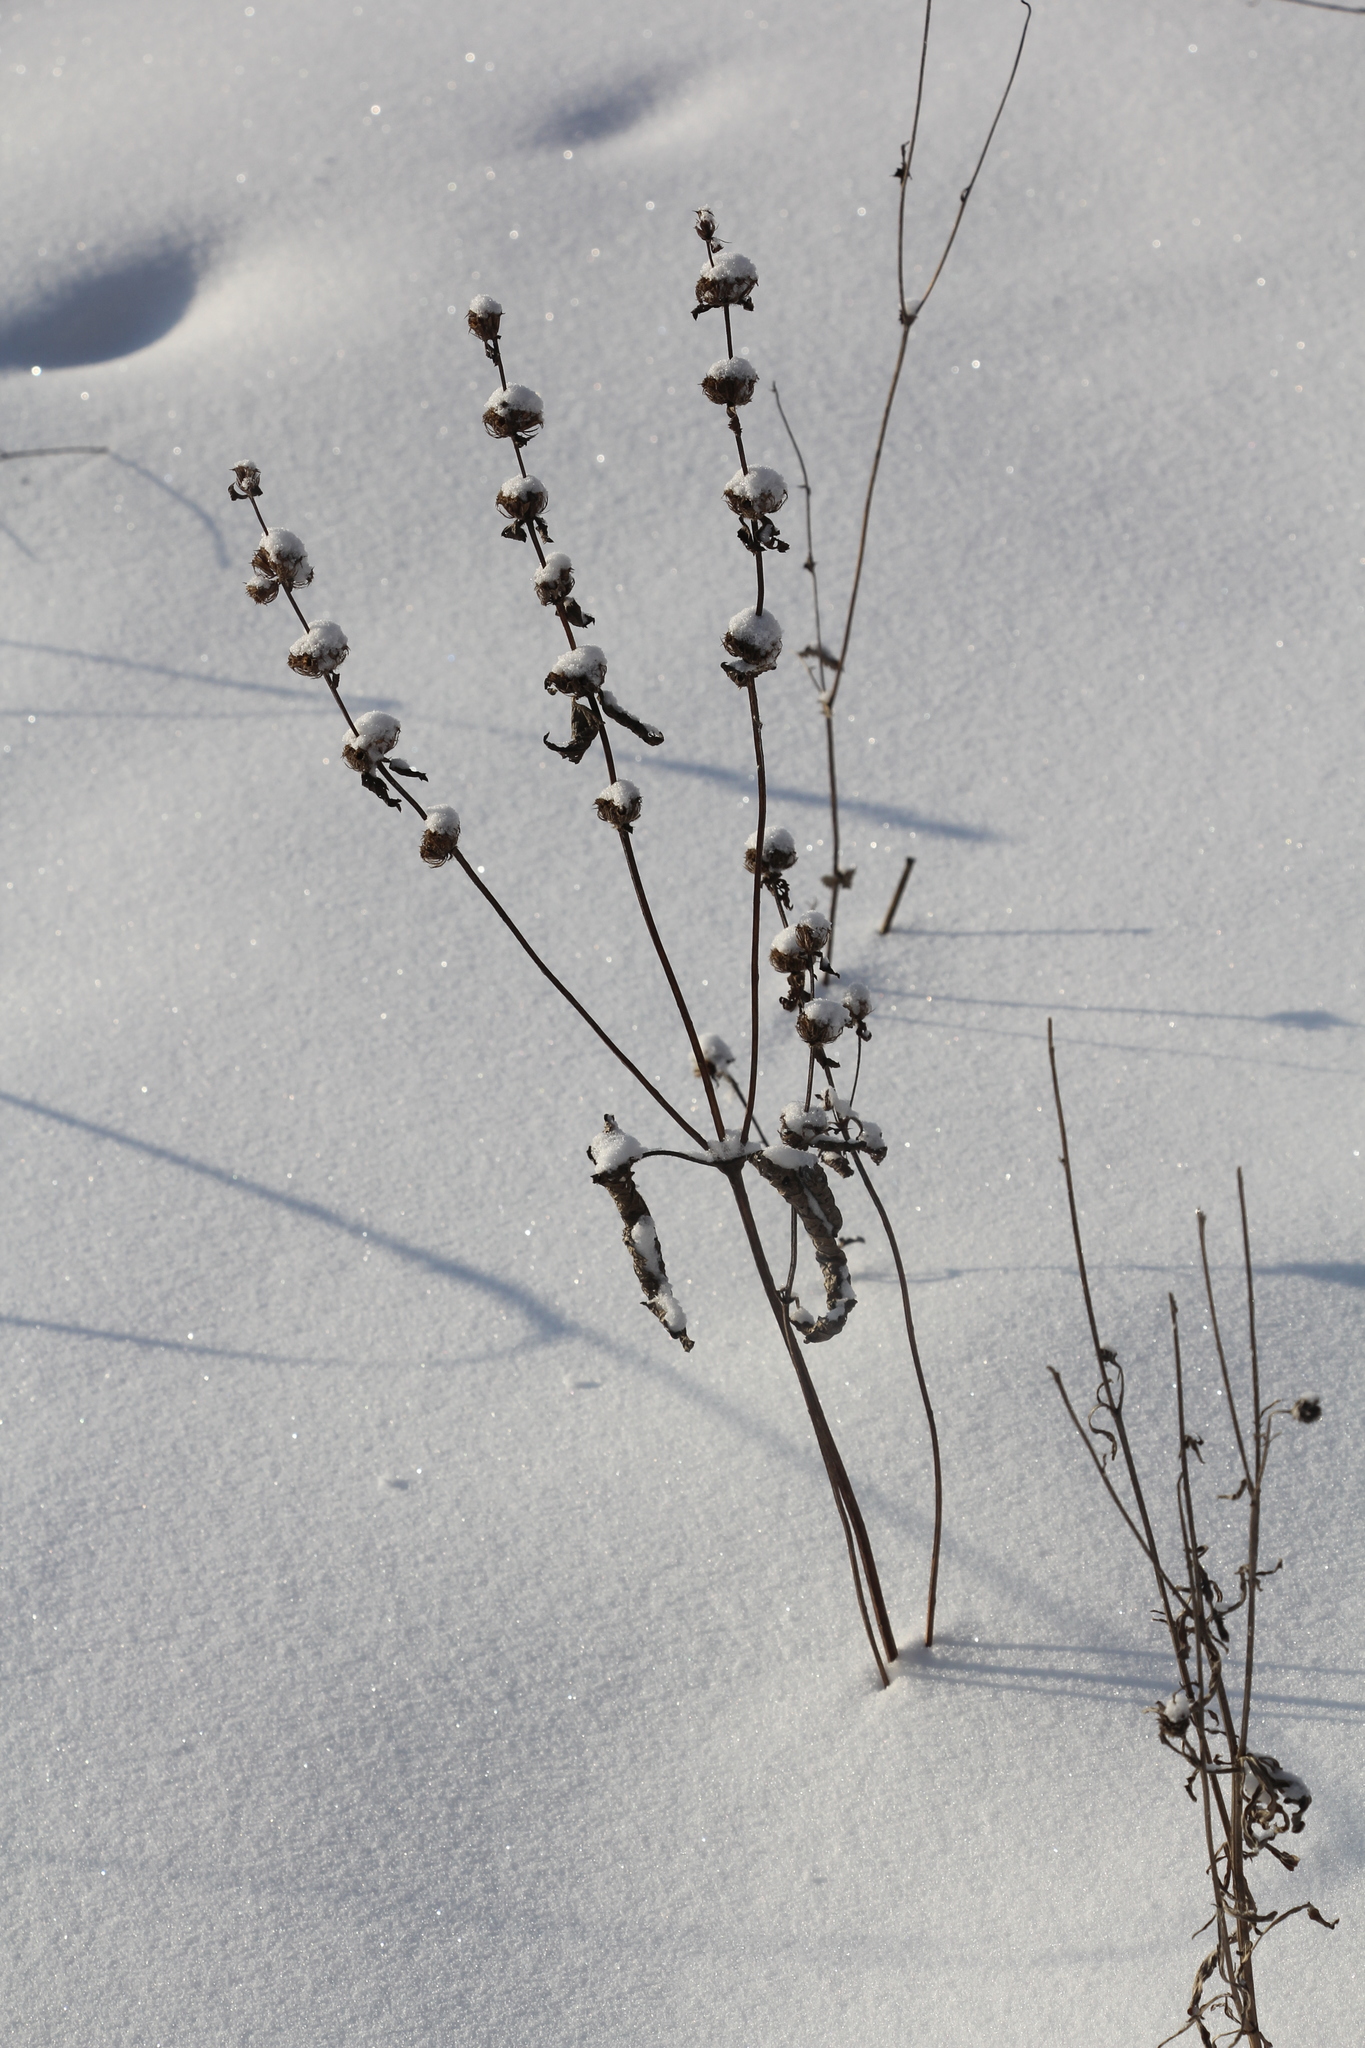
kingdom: Plantae
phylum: Tracheophyta
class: Magnoliopsida
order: Lamiales
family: Lamiaceae
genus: Phlomoides
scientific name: Phlomoides tuberosa
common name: Tuberous jerusalem sage
